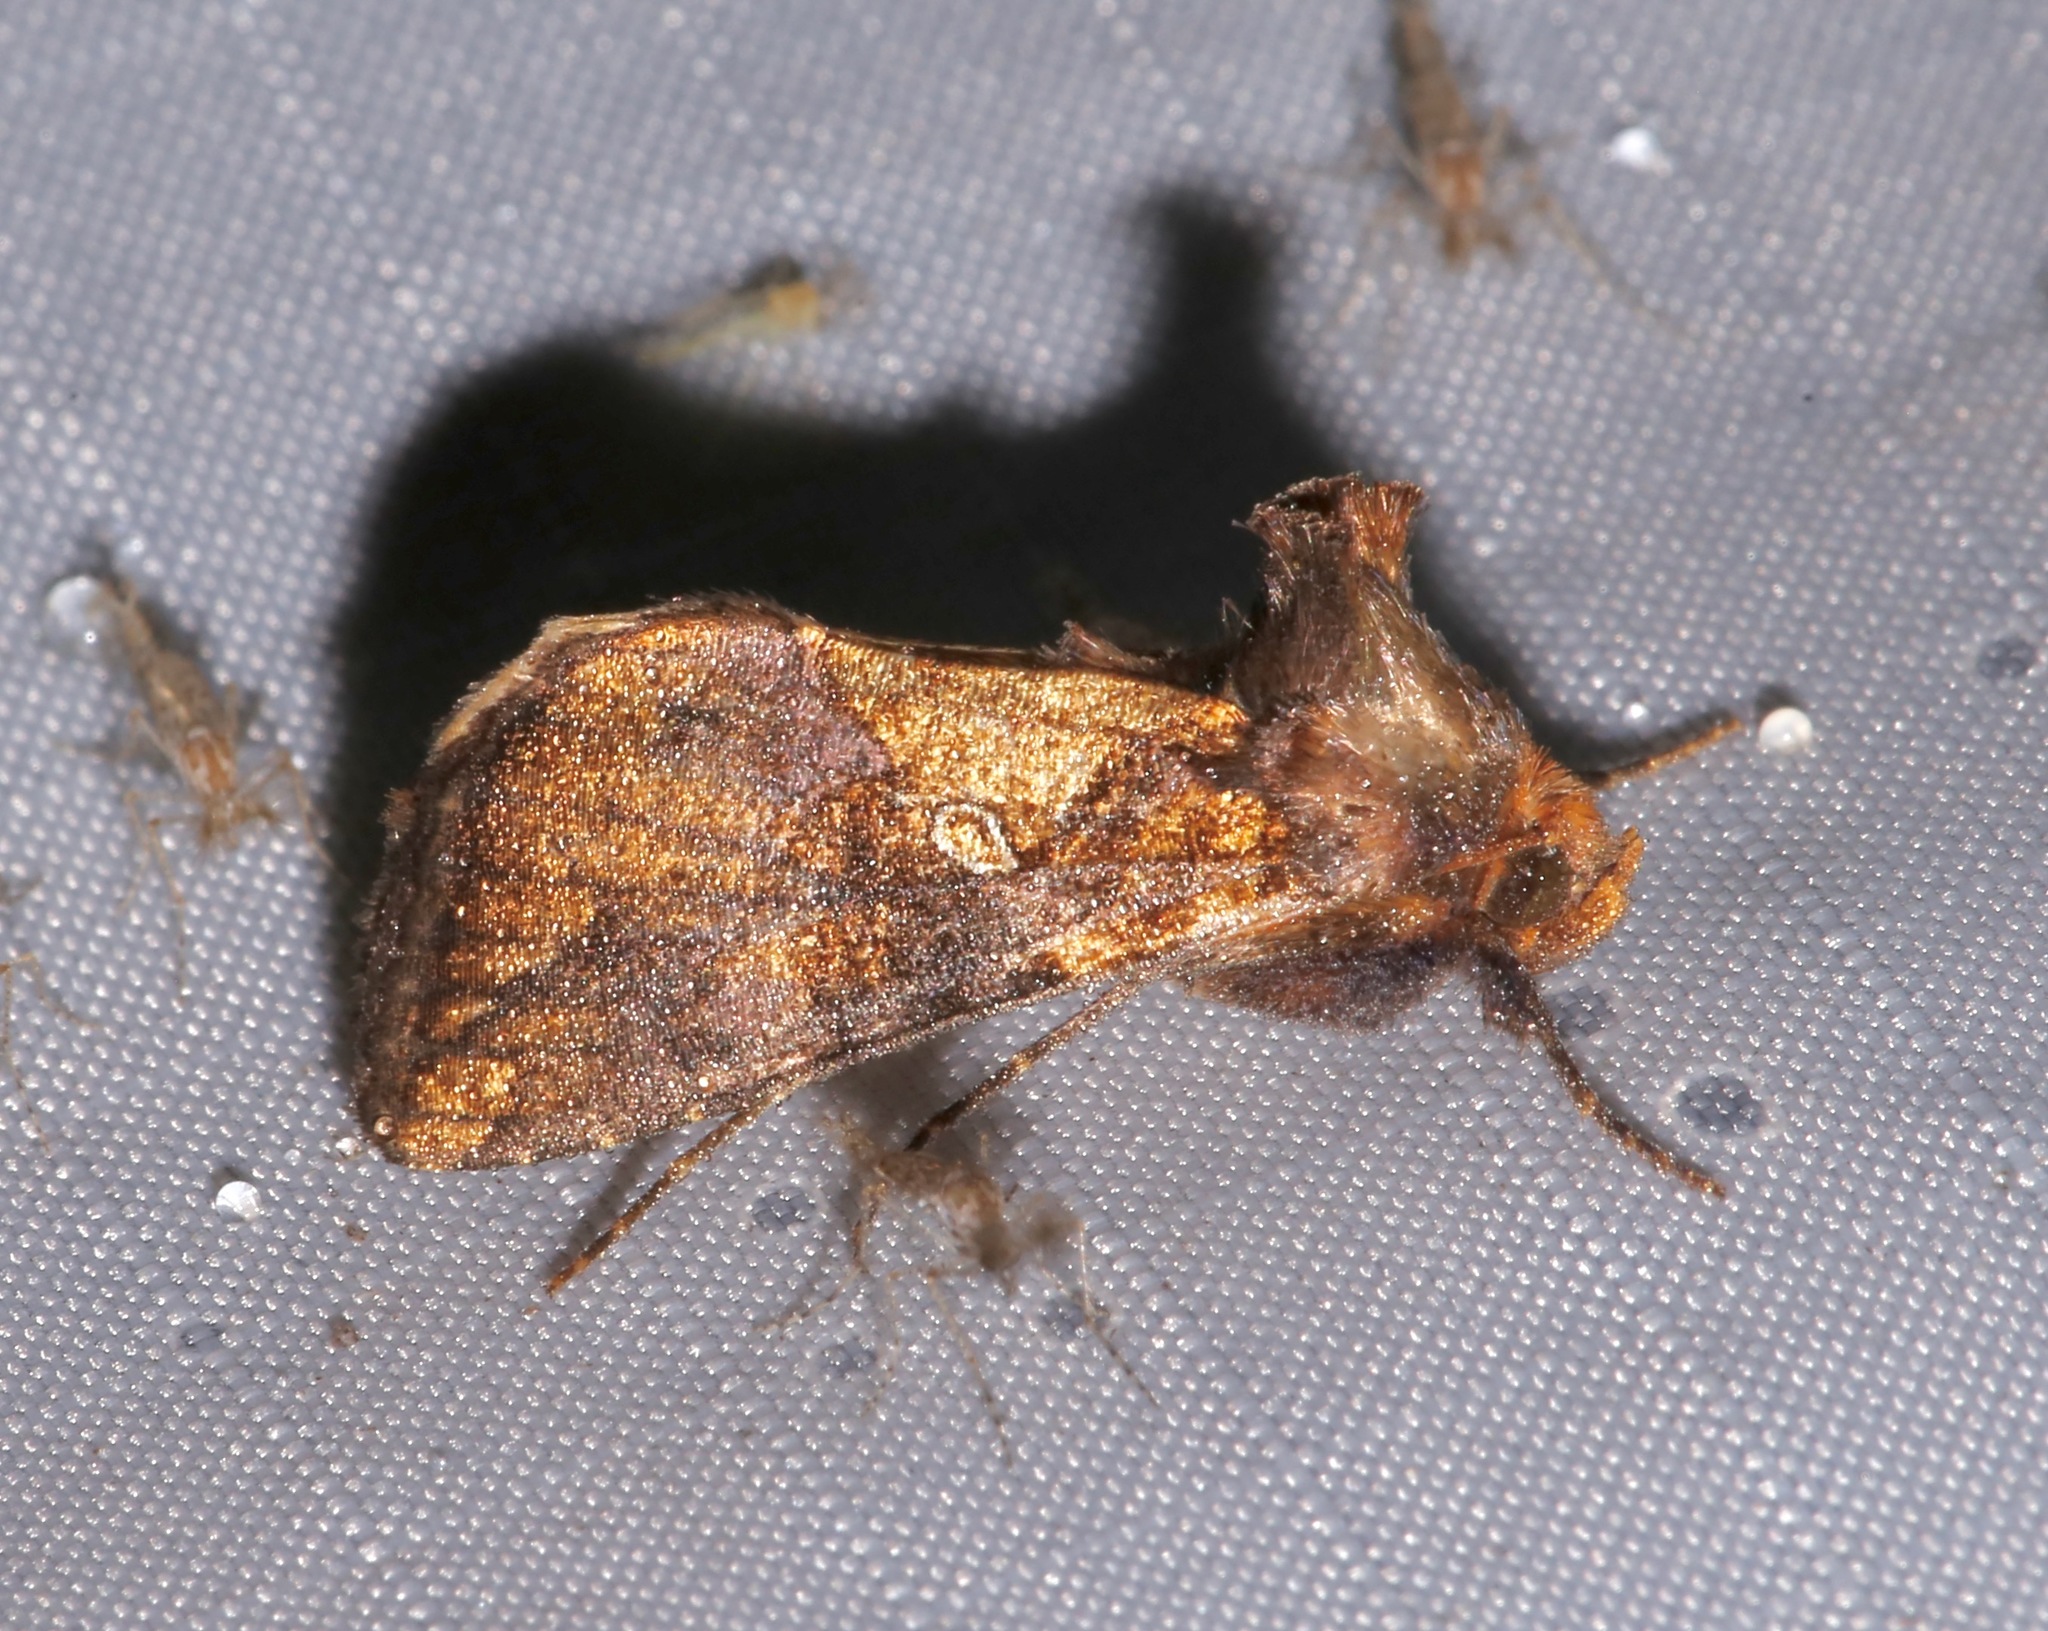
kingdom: Animalia
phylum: Arthropoda
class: Insecta
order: Lepidoptera
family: Noctuidae
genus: Argyrogramma
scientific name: Argyrogramma verruca
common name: Golden looper moth
